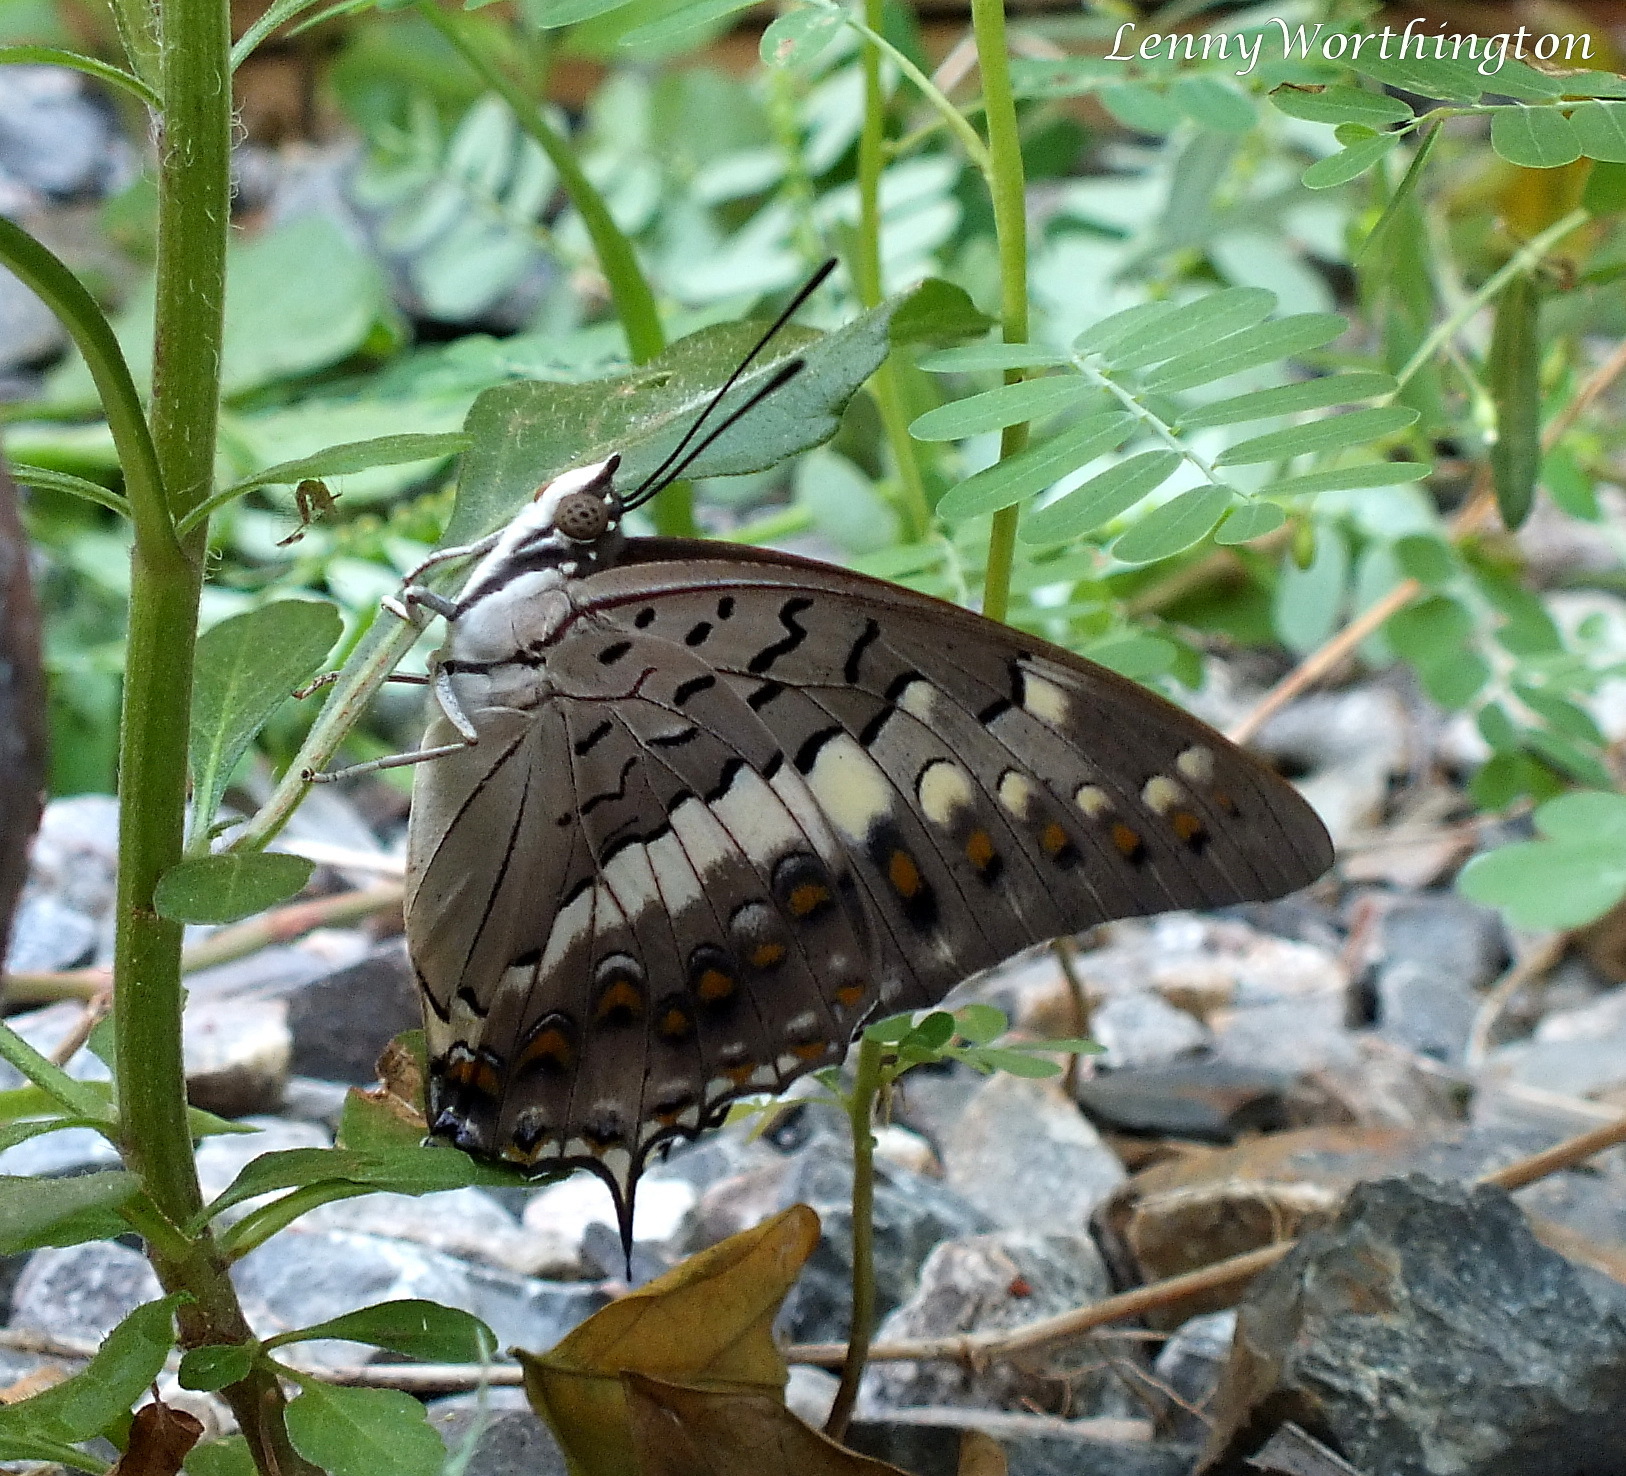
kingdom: Animalia
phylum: Arthropoda
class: Insecta
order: Lepidoptera
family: Nymphalidae
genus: Charaxes
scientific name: Charaxes solon
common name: Black rajah
